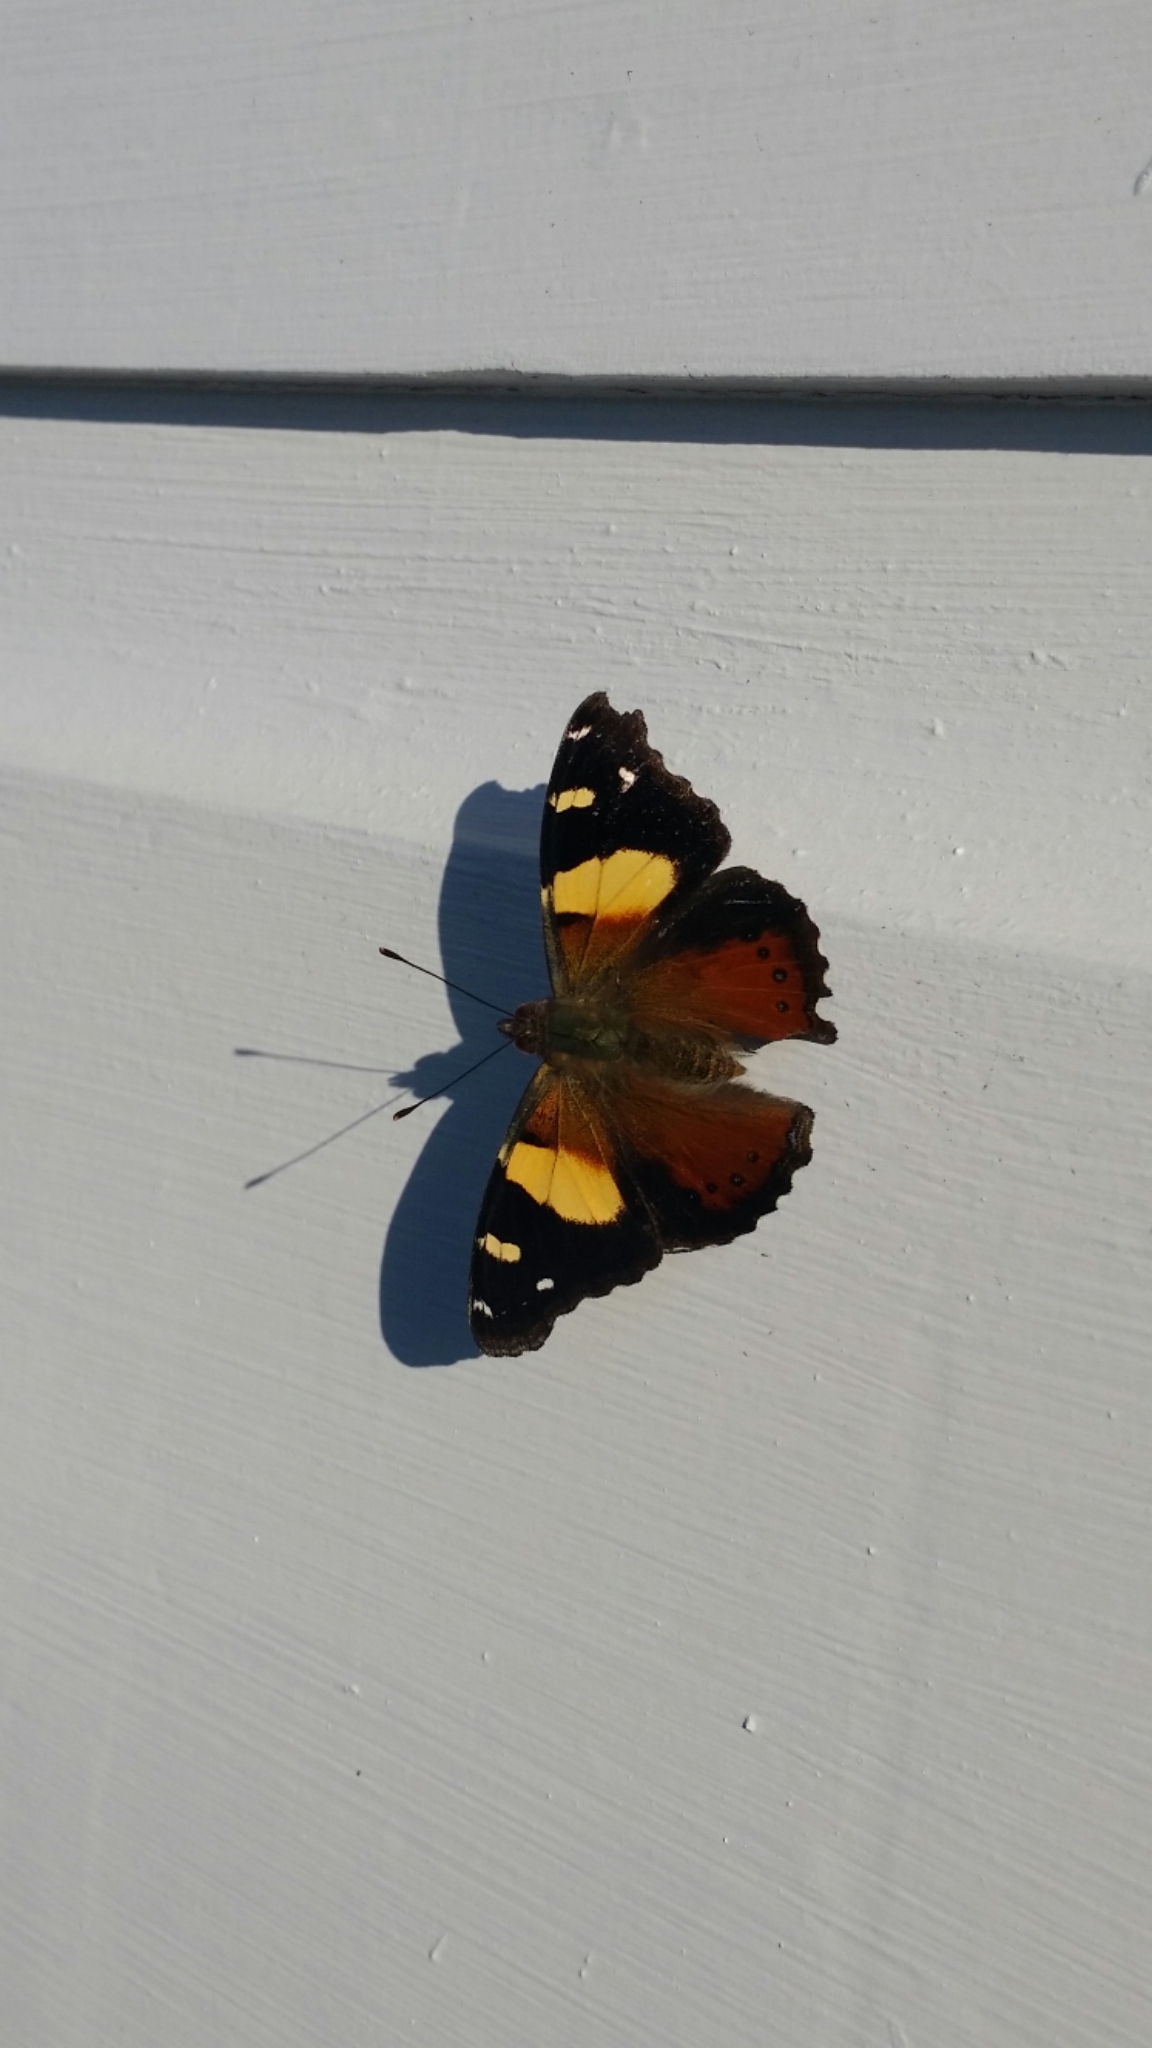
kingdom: Animalia
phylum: Arthropoda
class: Insecta
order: Lepidoptera
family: Nymphalidae
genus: Vanessa
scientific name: Vanessa itea
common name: Yellow admiral
